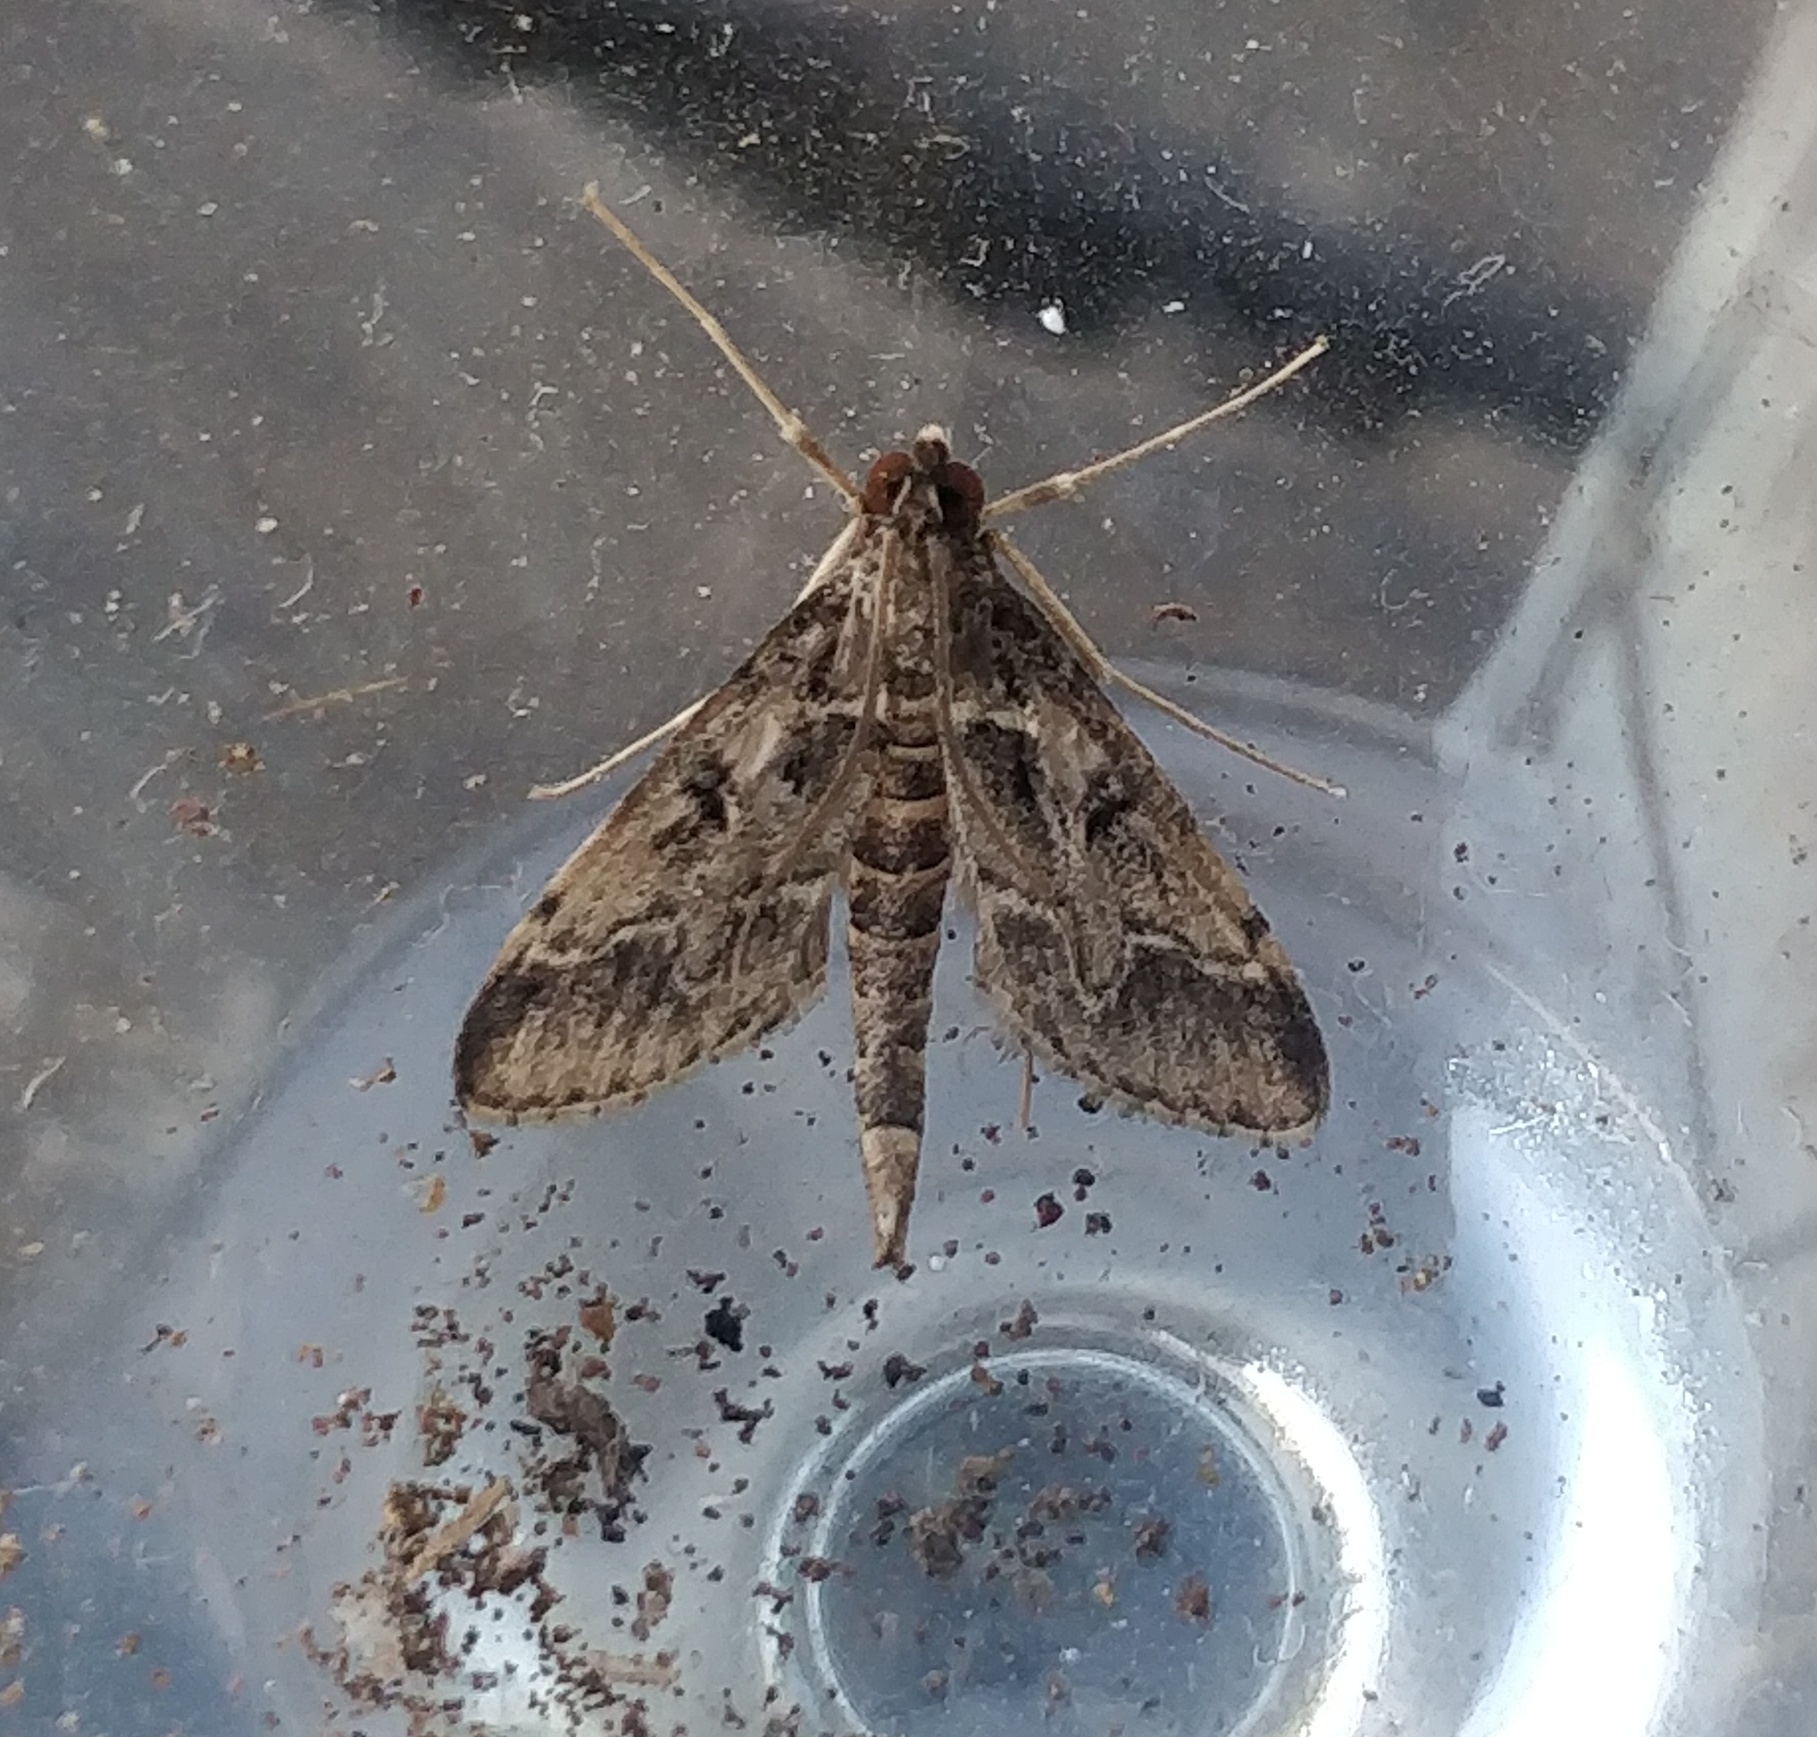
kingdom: Animalia
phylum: Arthropoda
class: Insecta
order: Lepidoptera
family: Crambidae
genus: Duponchelia
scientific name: Duponchelia fovealis
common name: Crambid moth
